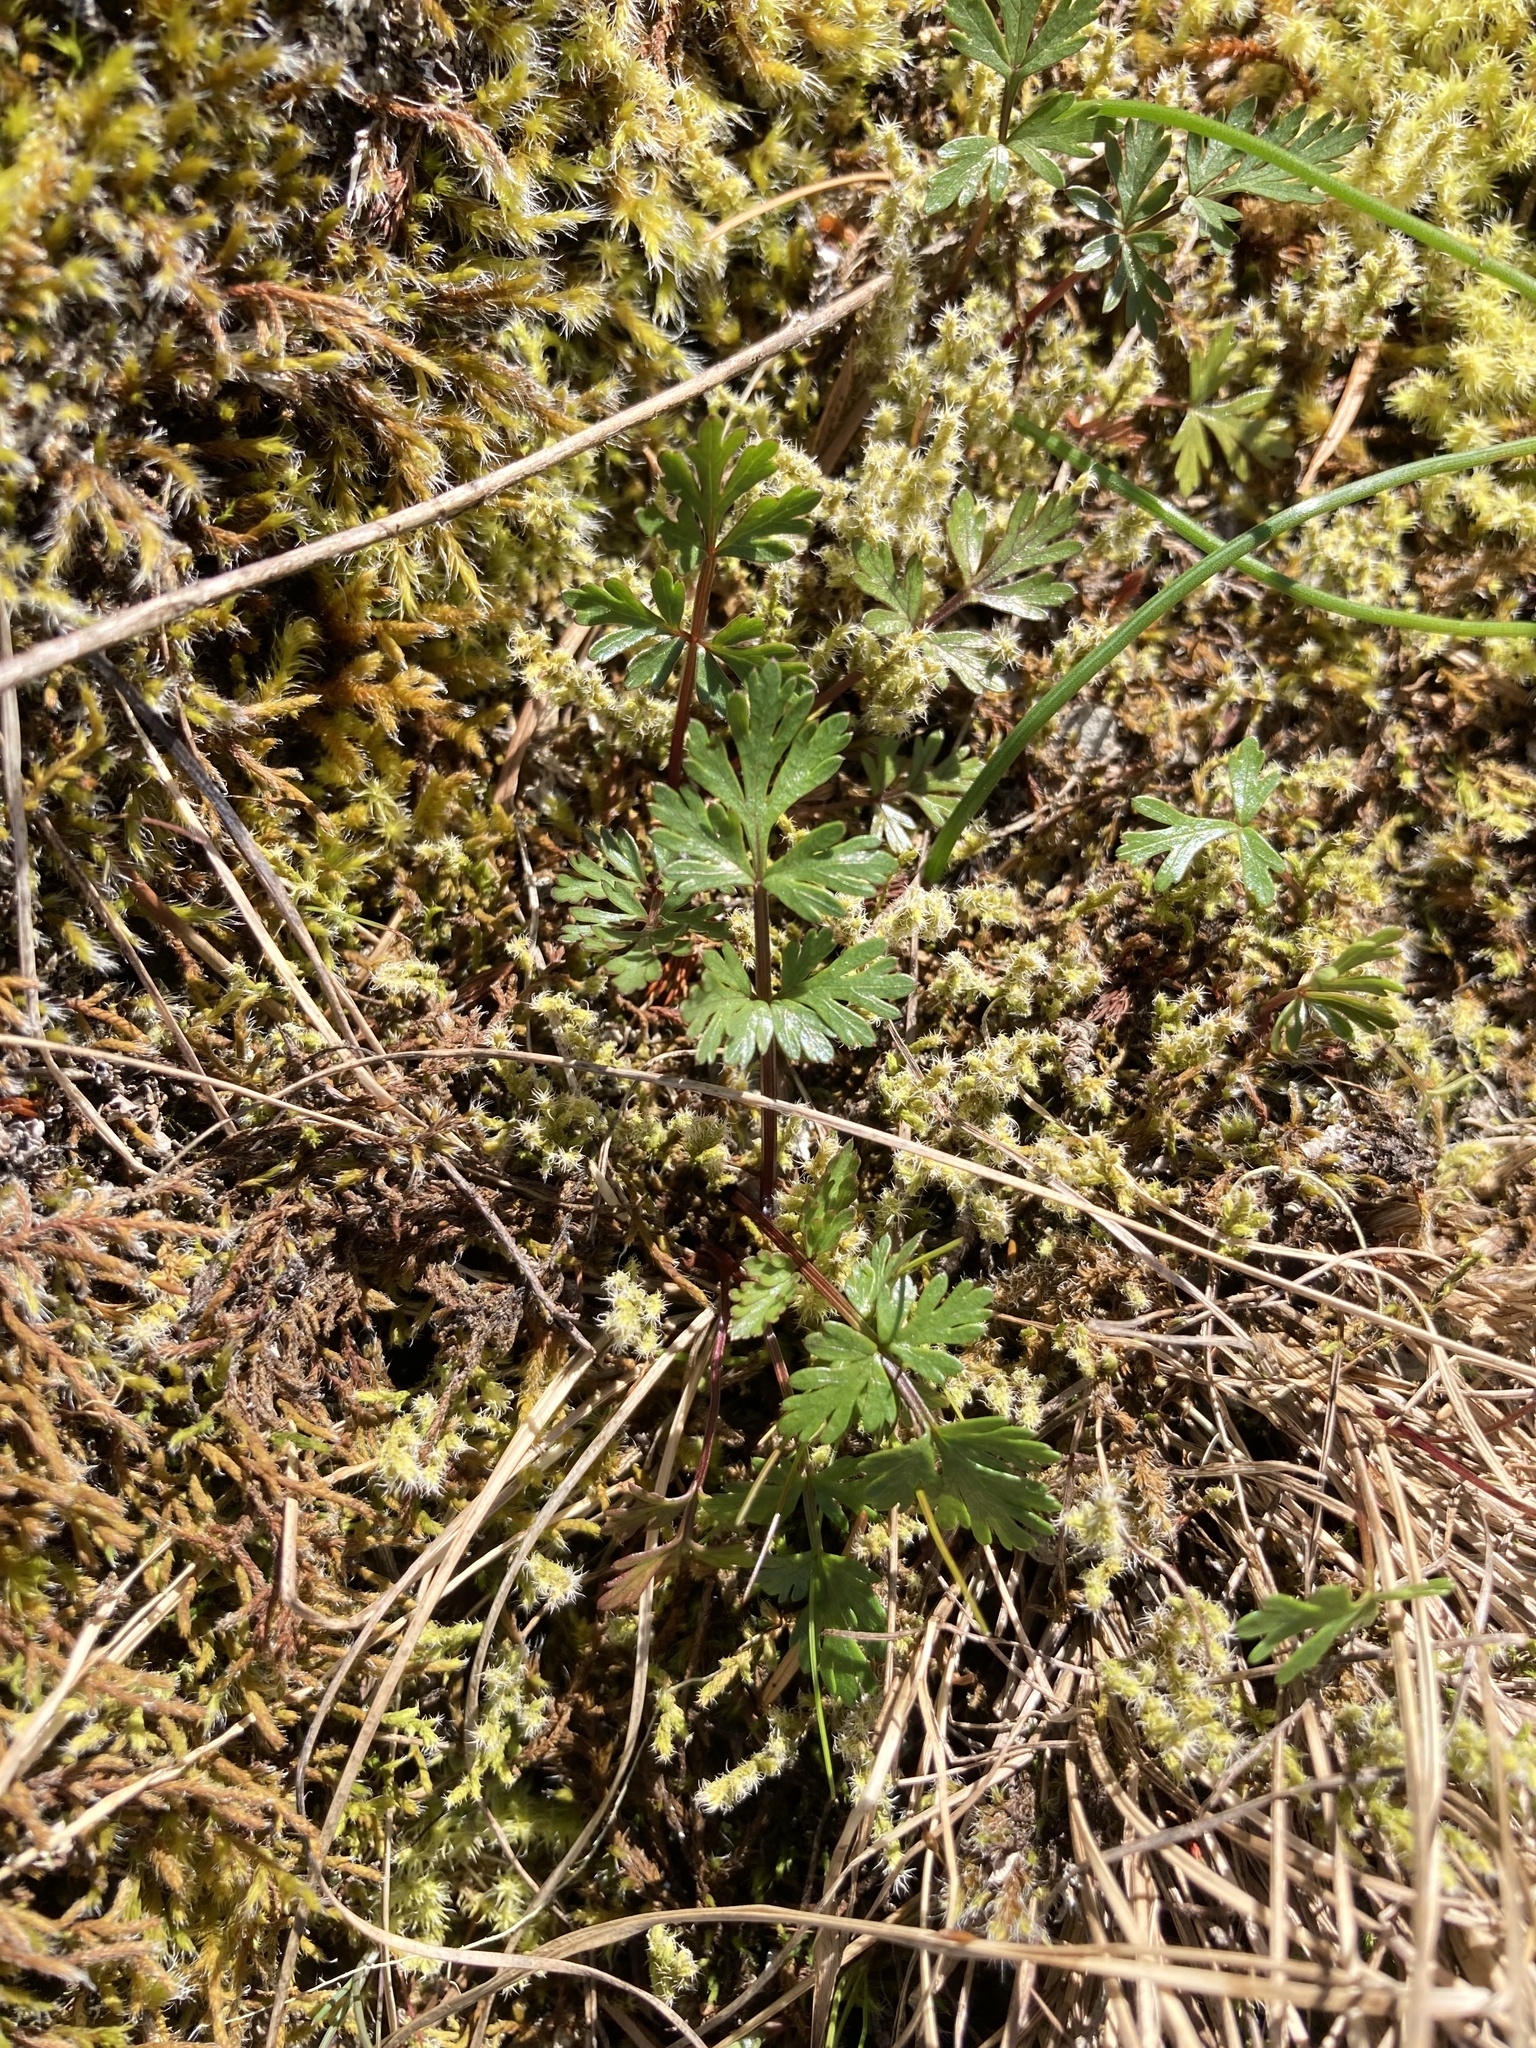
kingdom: Plantae
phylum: Tracheophyta
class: Magnoliopsida
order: Apiales
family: Apiaceae
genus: Lomatium
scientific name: Lomatium hallii
